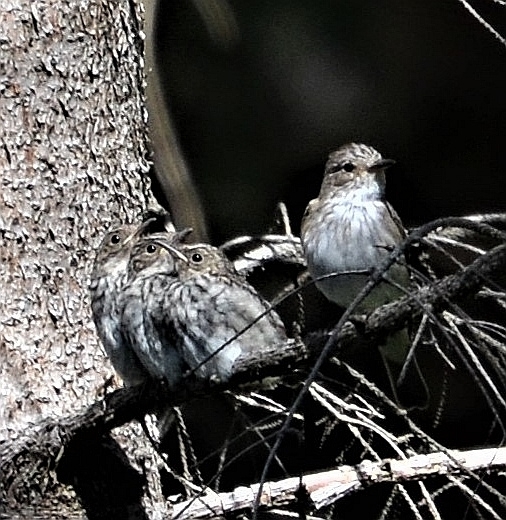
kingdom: Animalia
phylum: Chordata
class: Aves
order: Passeriformes
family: Muscicapidae
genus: Muscicapa
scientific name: Muscicapa striata
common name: Spotted flycatcher
